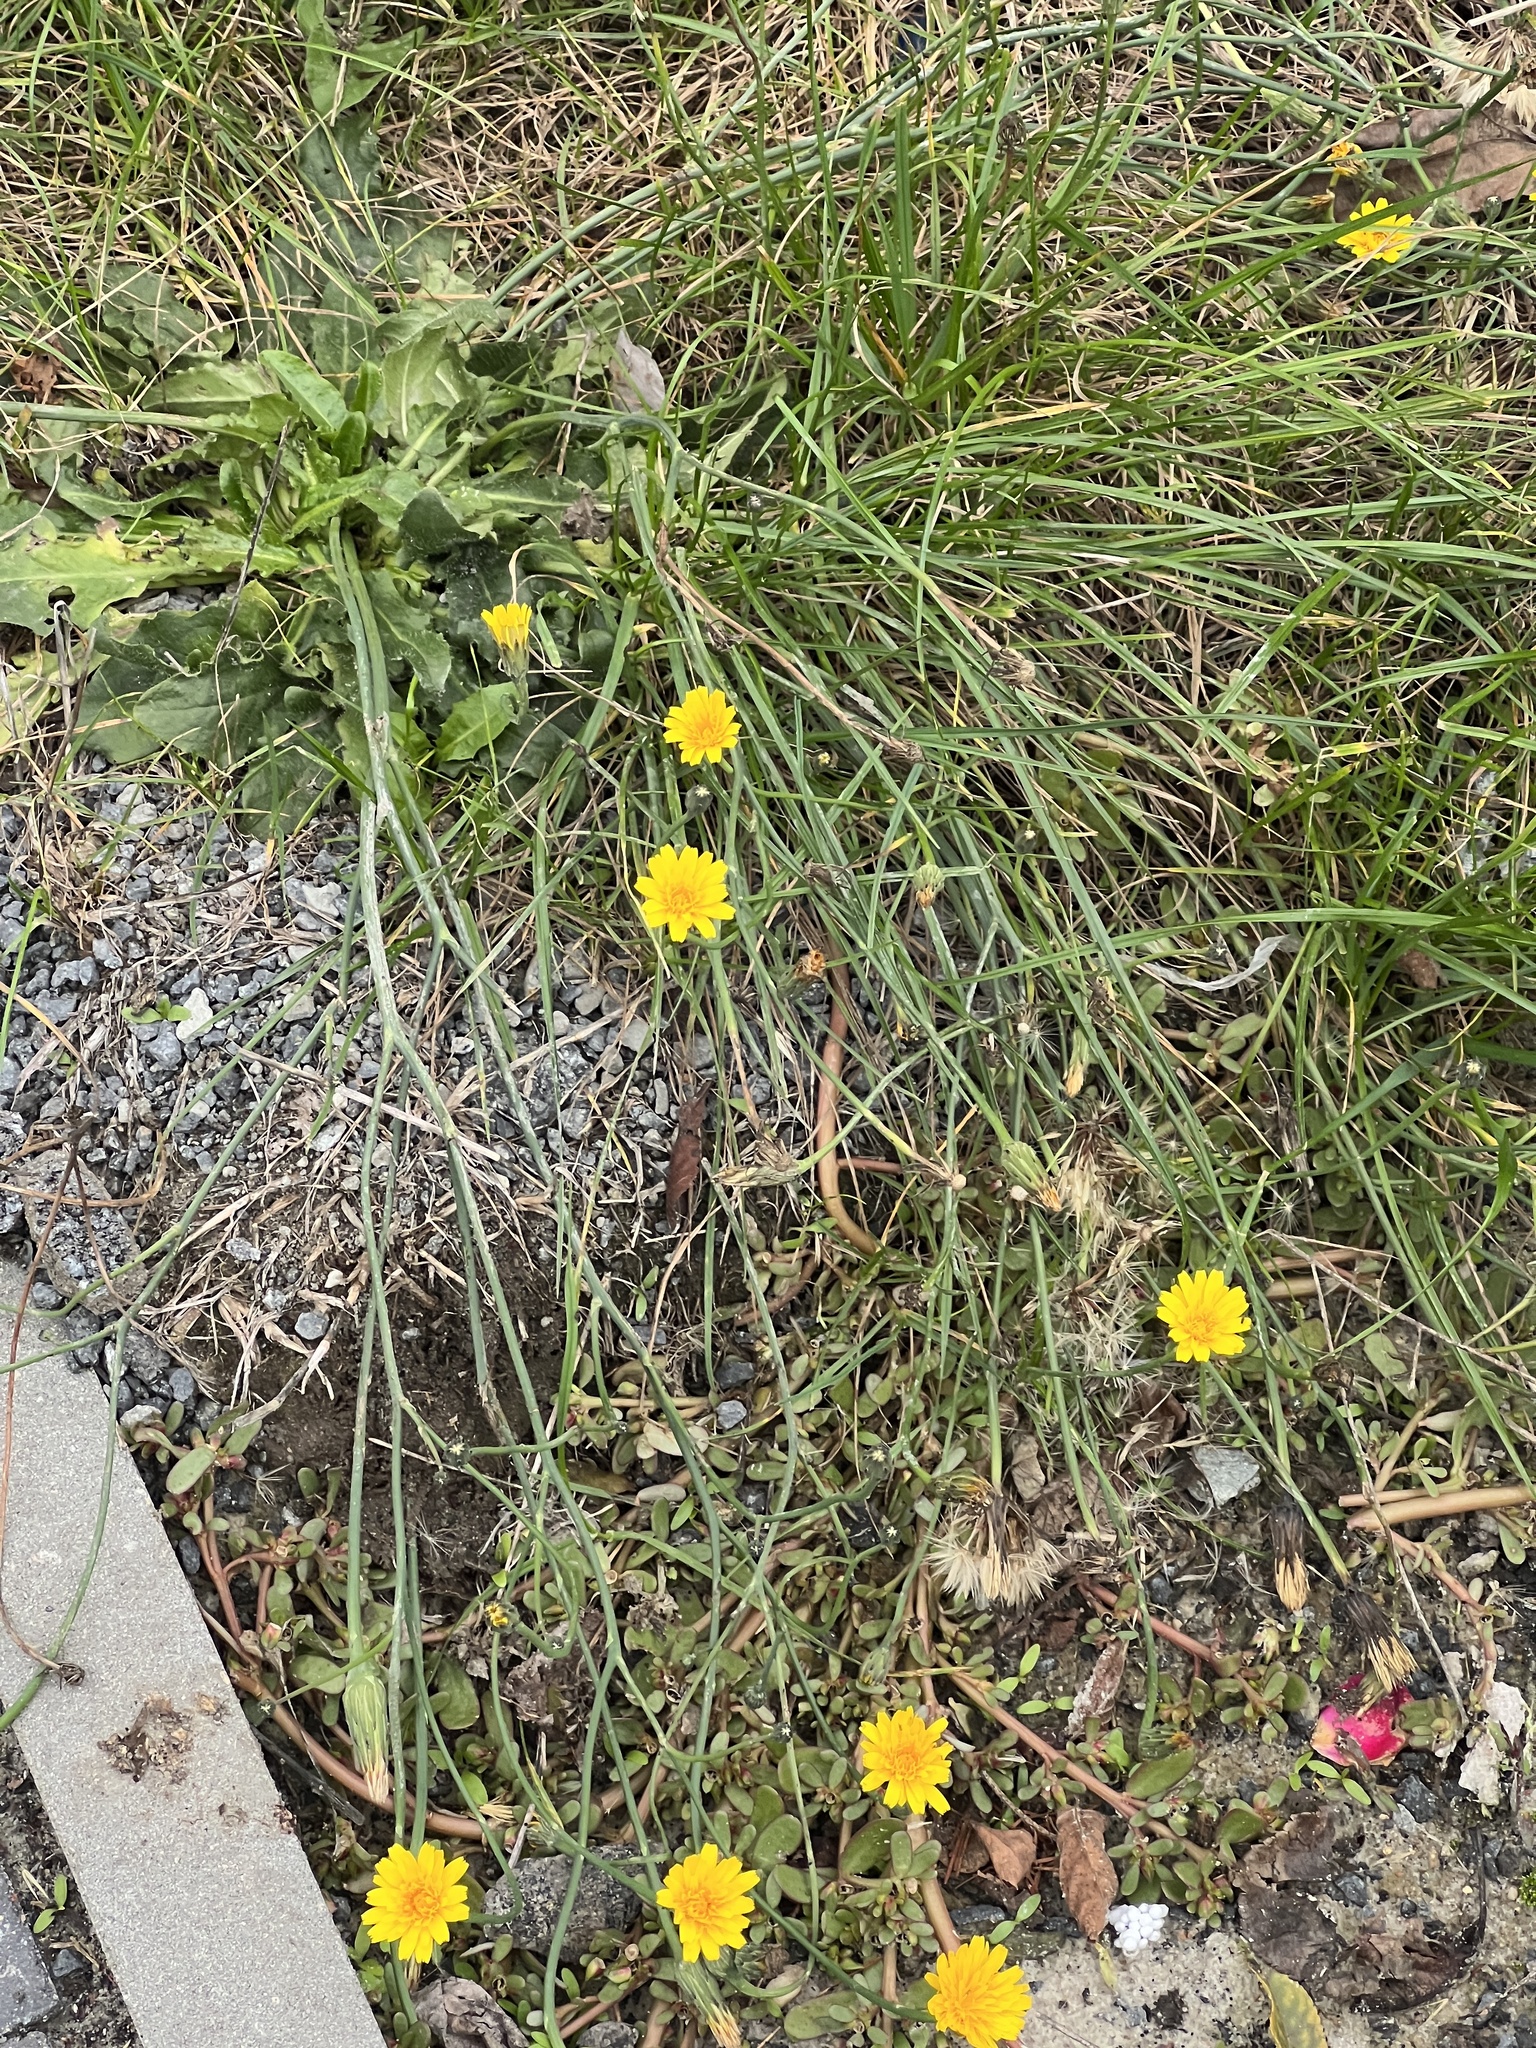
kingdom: Plantae
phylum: Tracheophyta
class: Magnoliopsida
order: Asterales
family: Asteraceae
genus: Hypochaeris
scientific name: Hypochaeris radicata
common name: Flatweed
